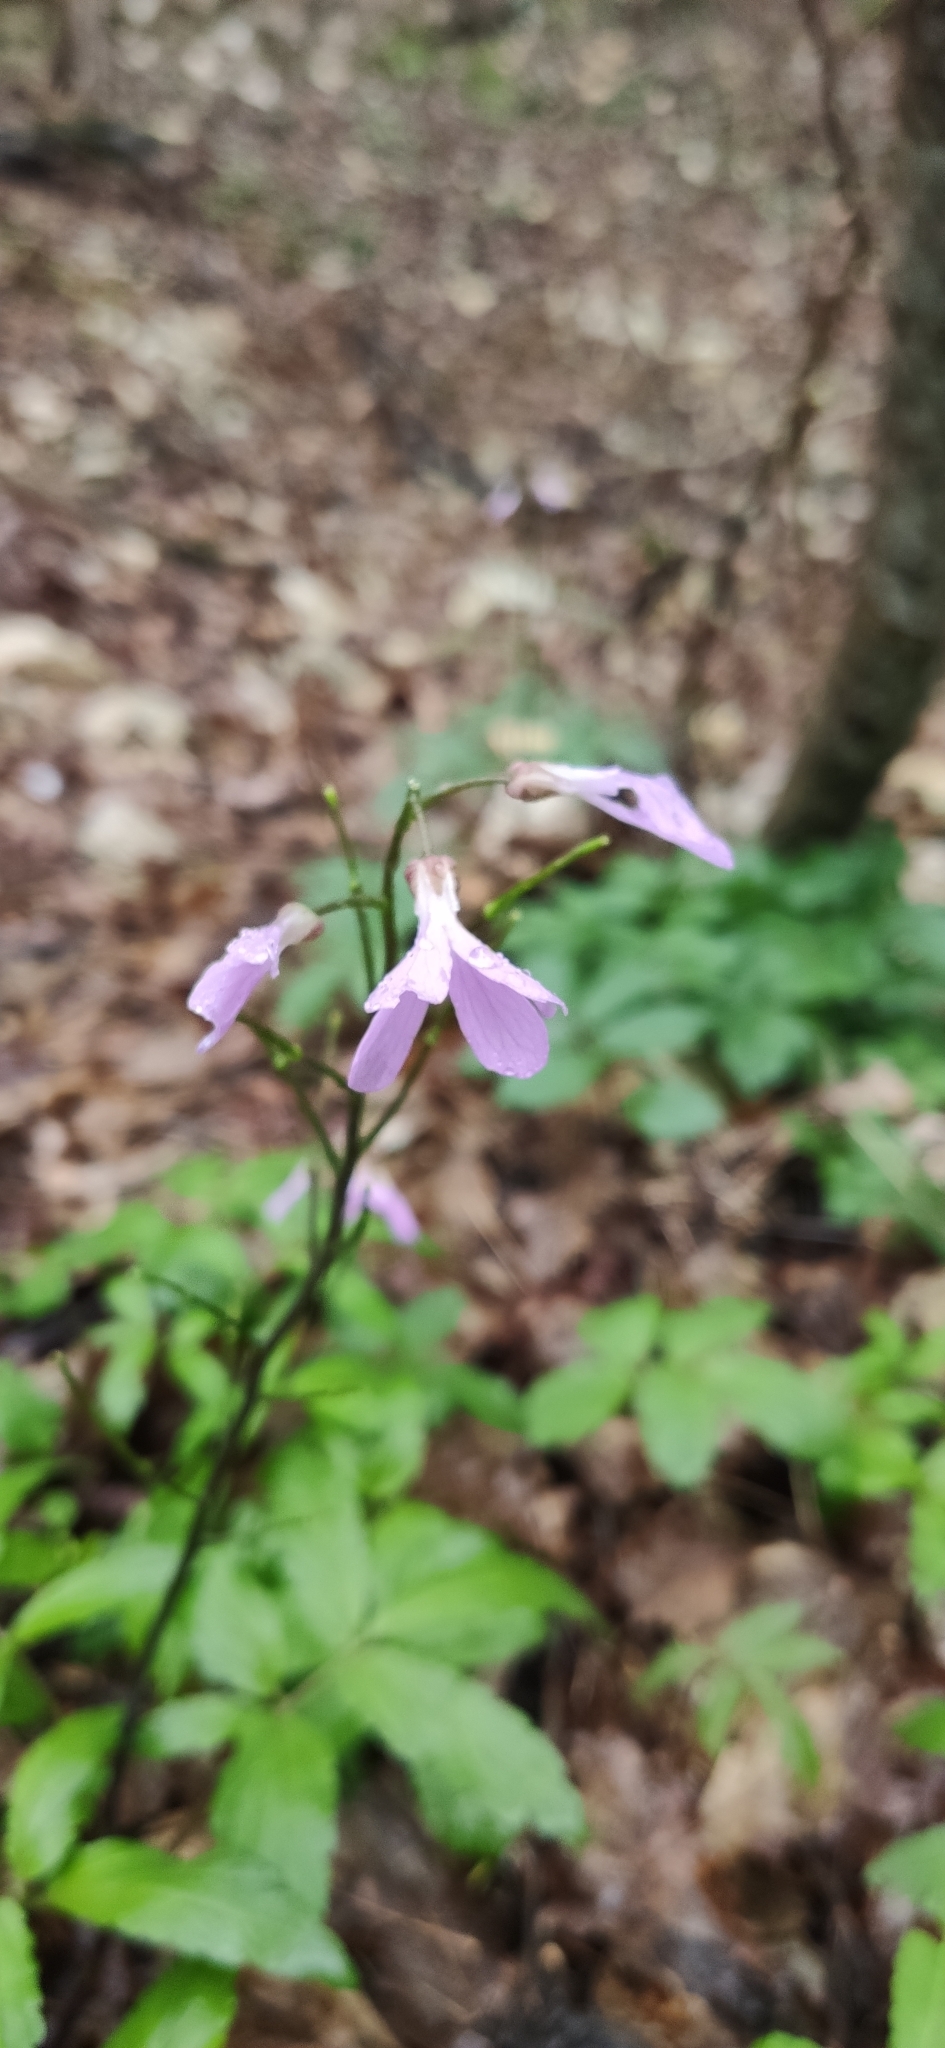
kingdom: Plantae
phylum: Tracheophyta
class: Magnoliopsida
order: Brassicales
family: Brassicaceae
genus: Cardamine
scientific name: Cardamine quinquefolia
